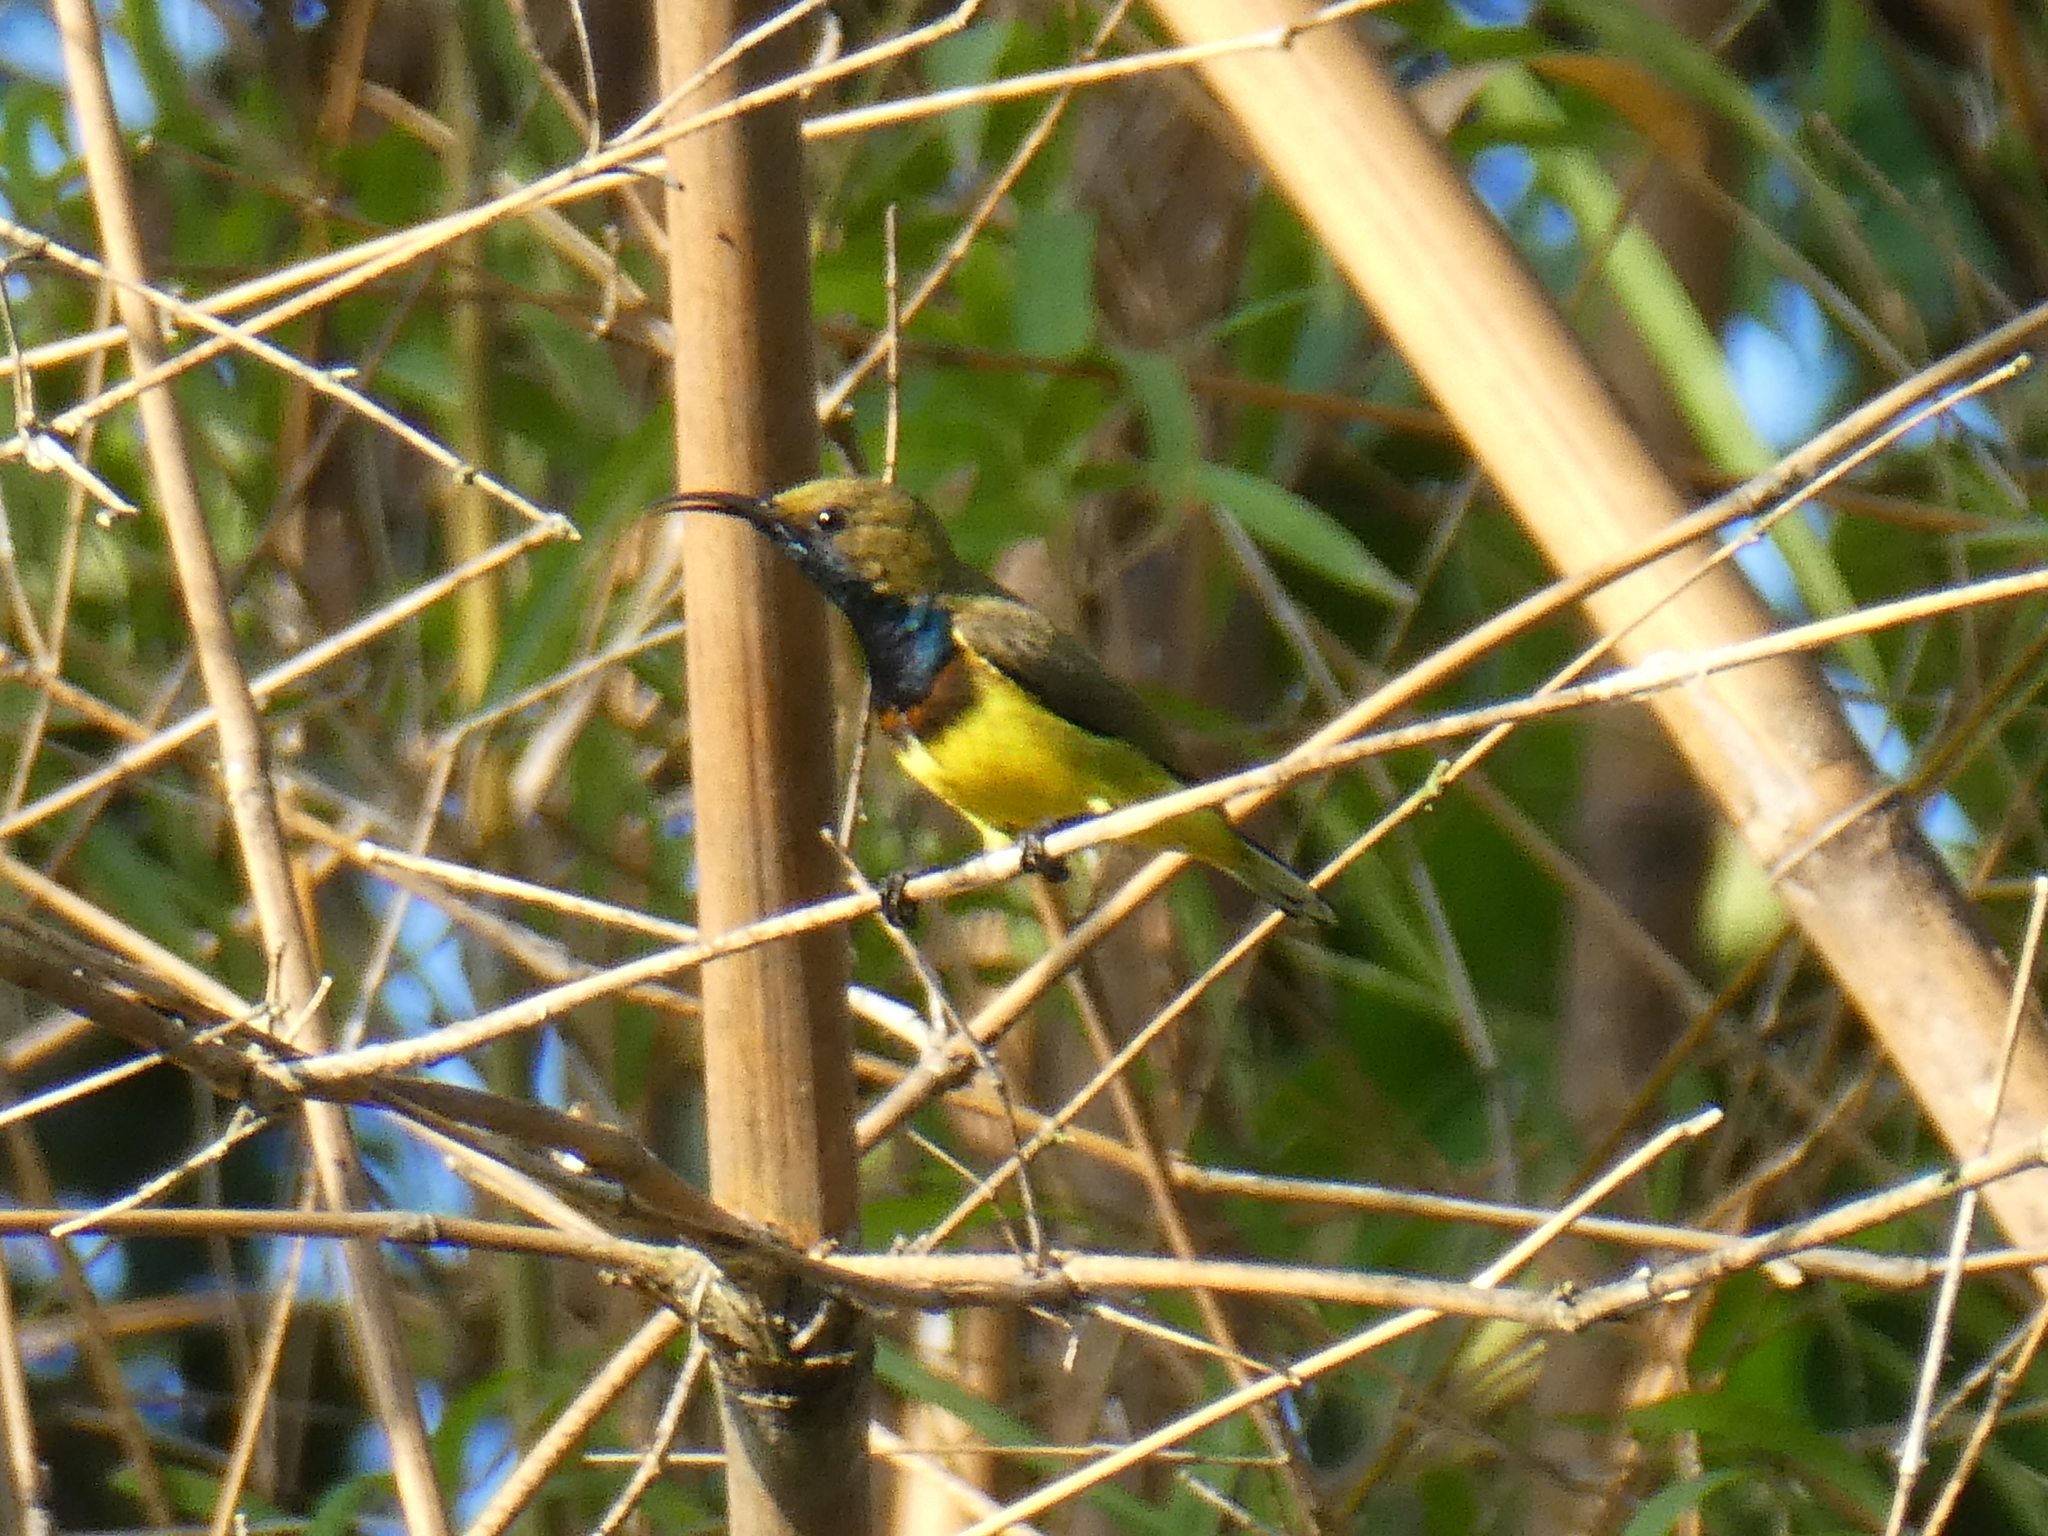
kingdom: Animalia
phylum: Chordata
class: Aves
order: Passeriformes
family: Nectariniidae
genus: Cinnyris
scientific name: Cinnyris
